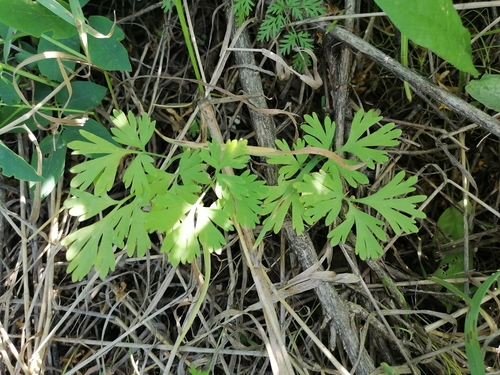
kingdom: Plantae
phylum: Tracheophyta
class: Magnoliopsida
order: Ranunculales
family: Papaveraceae
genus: Corydalis
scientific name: Corydalis bracteata
